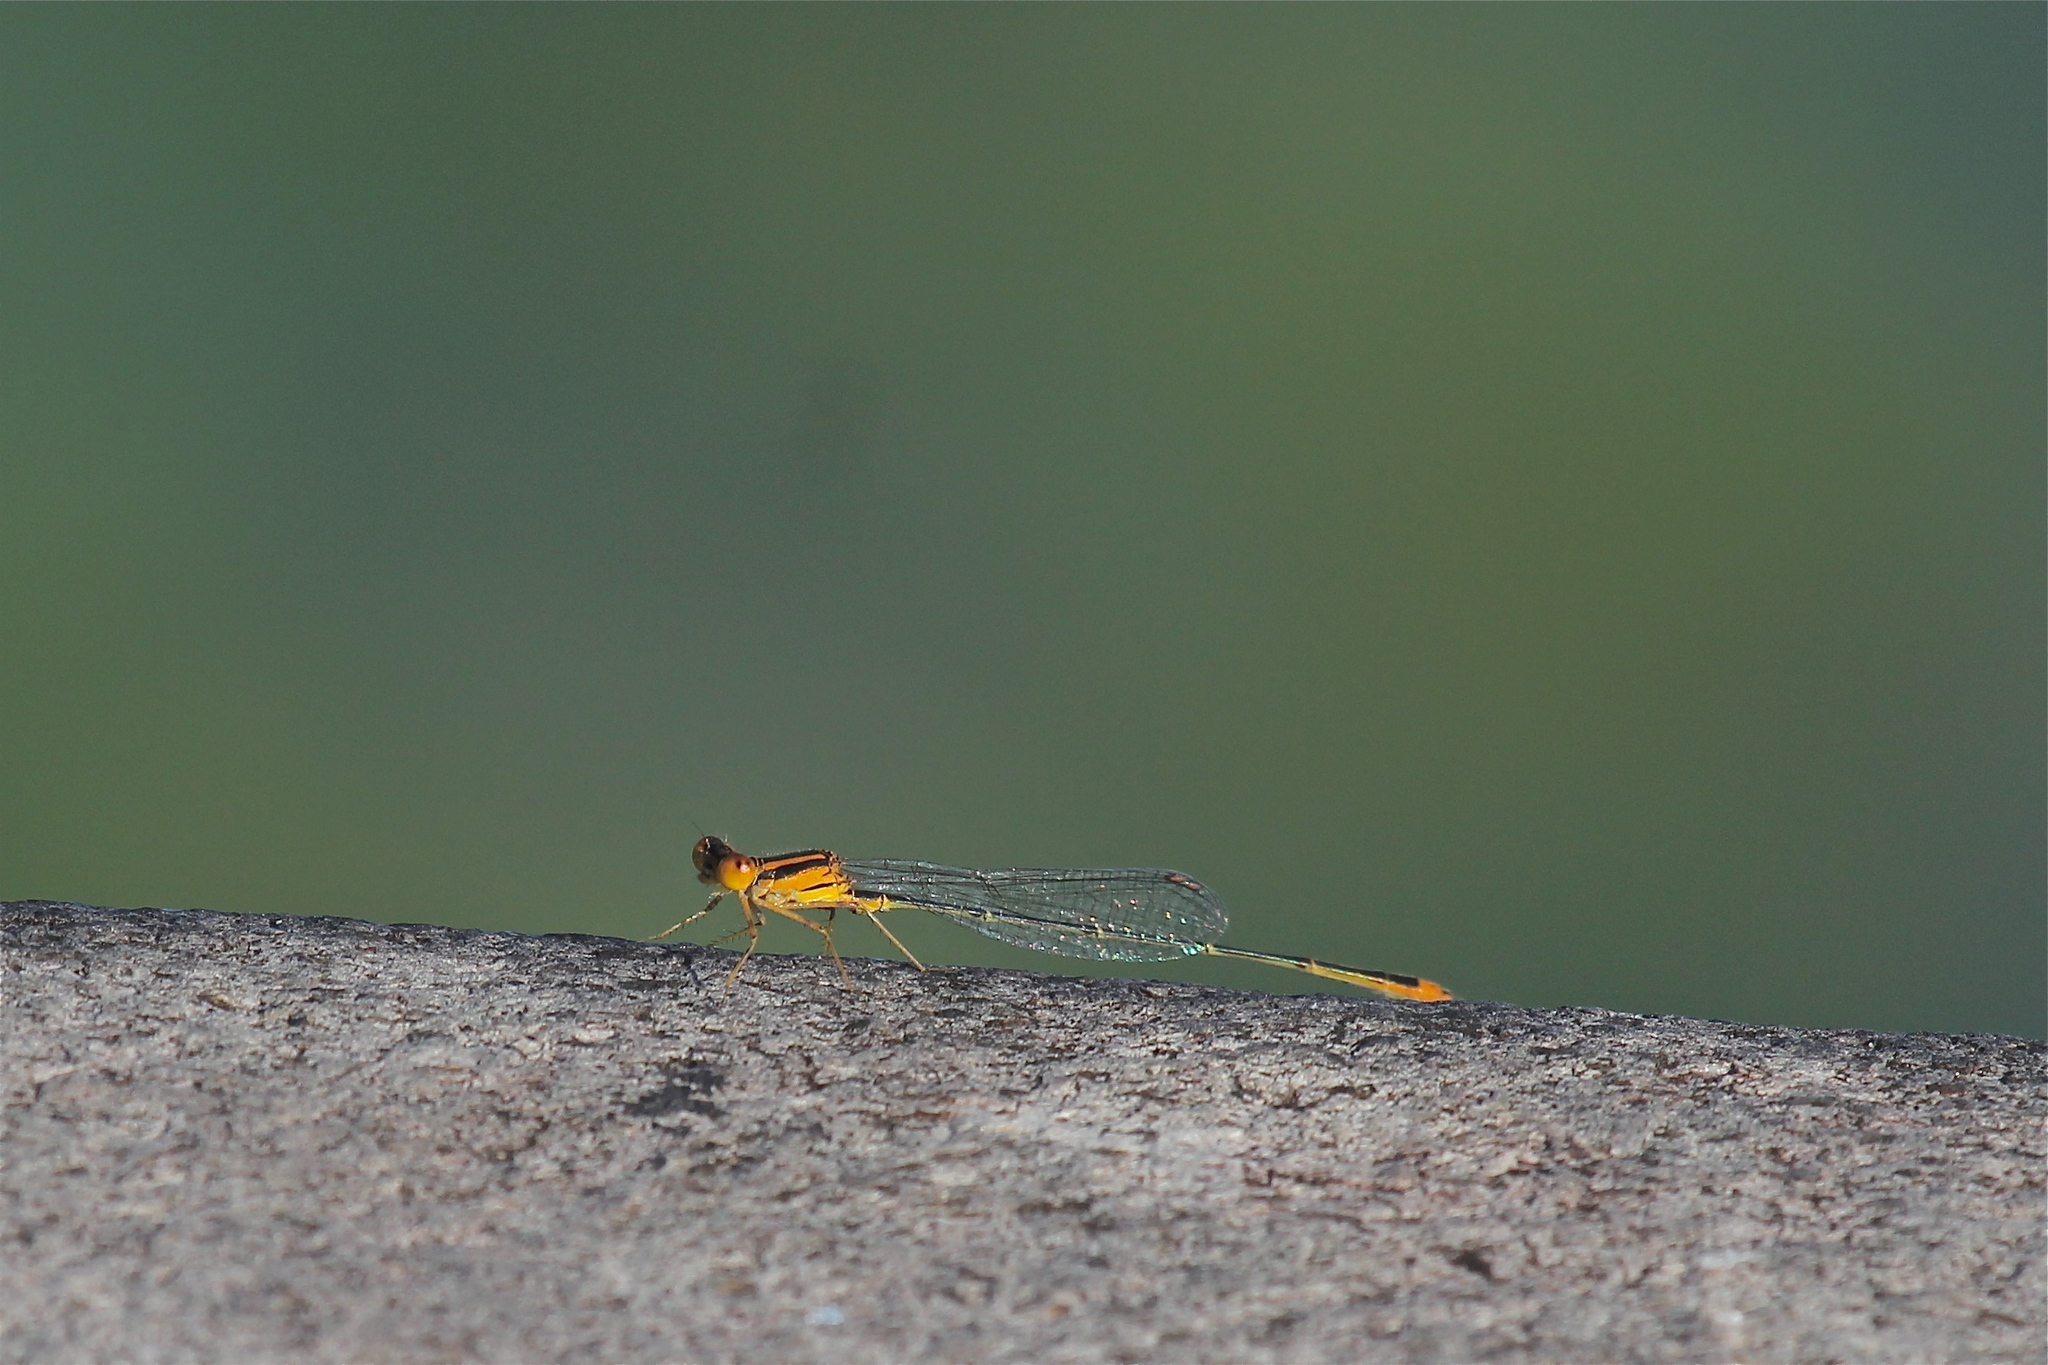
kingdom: Animalia
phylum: Arthropoda
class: Insecta
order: Odonata
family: Coenagrionidae
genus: Enallagma
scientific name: Enallagma pollutum
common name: Florida bluet
